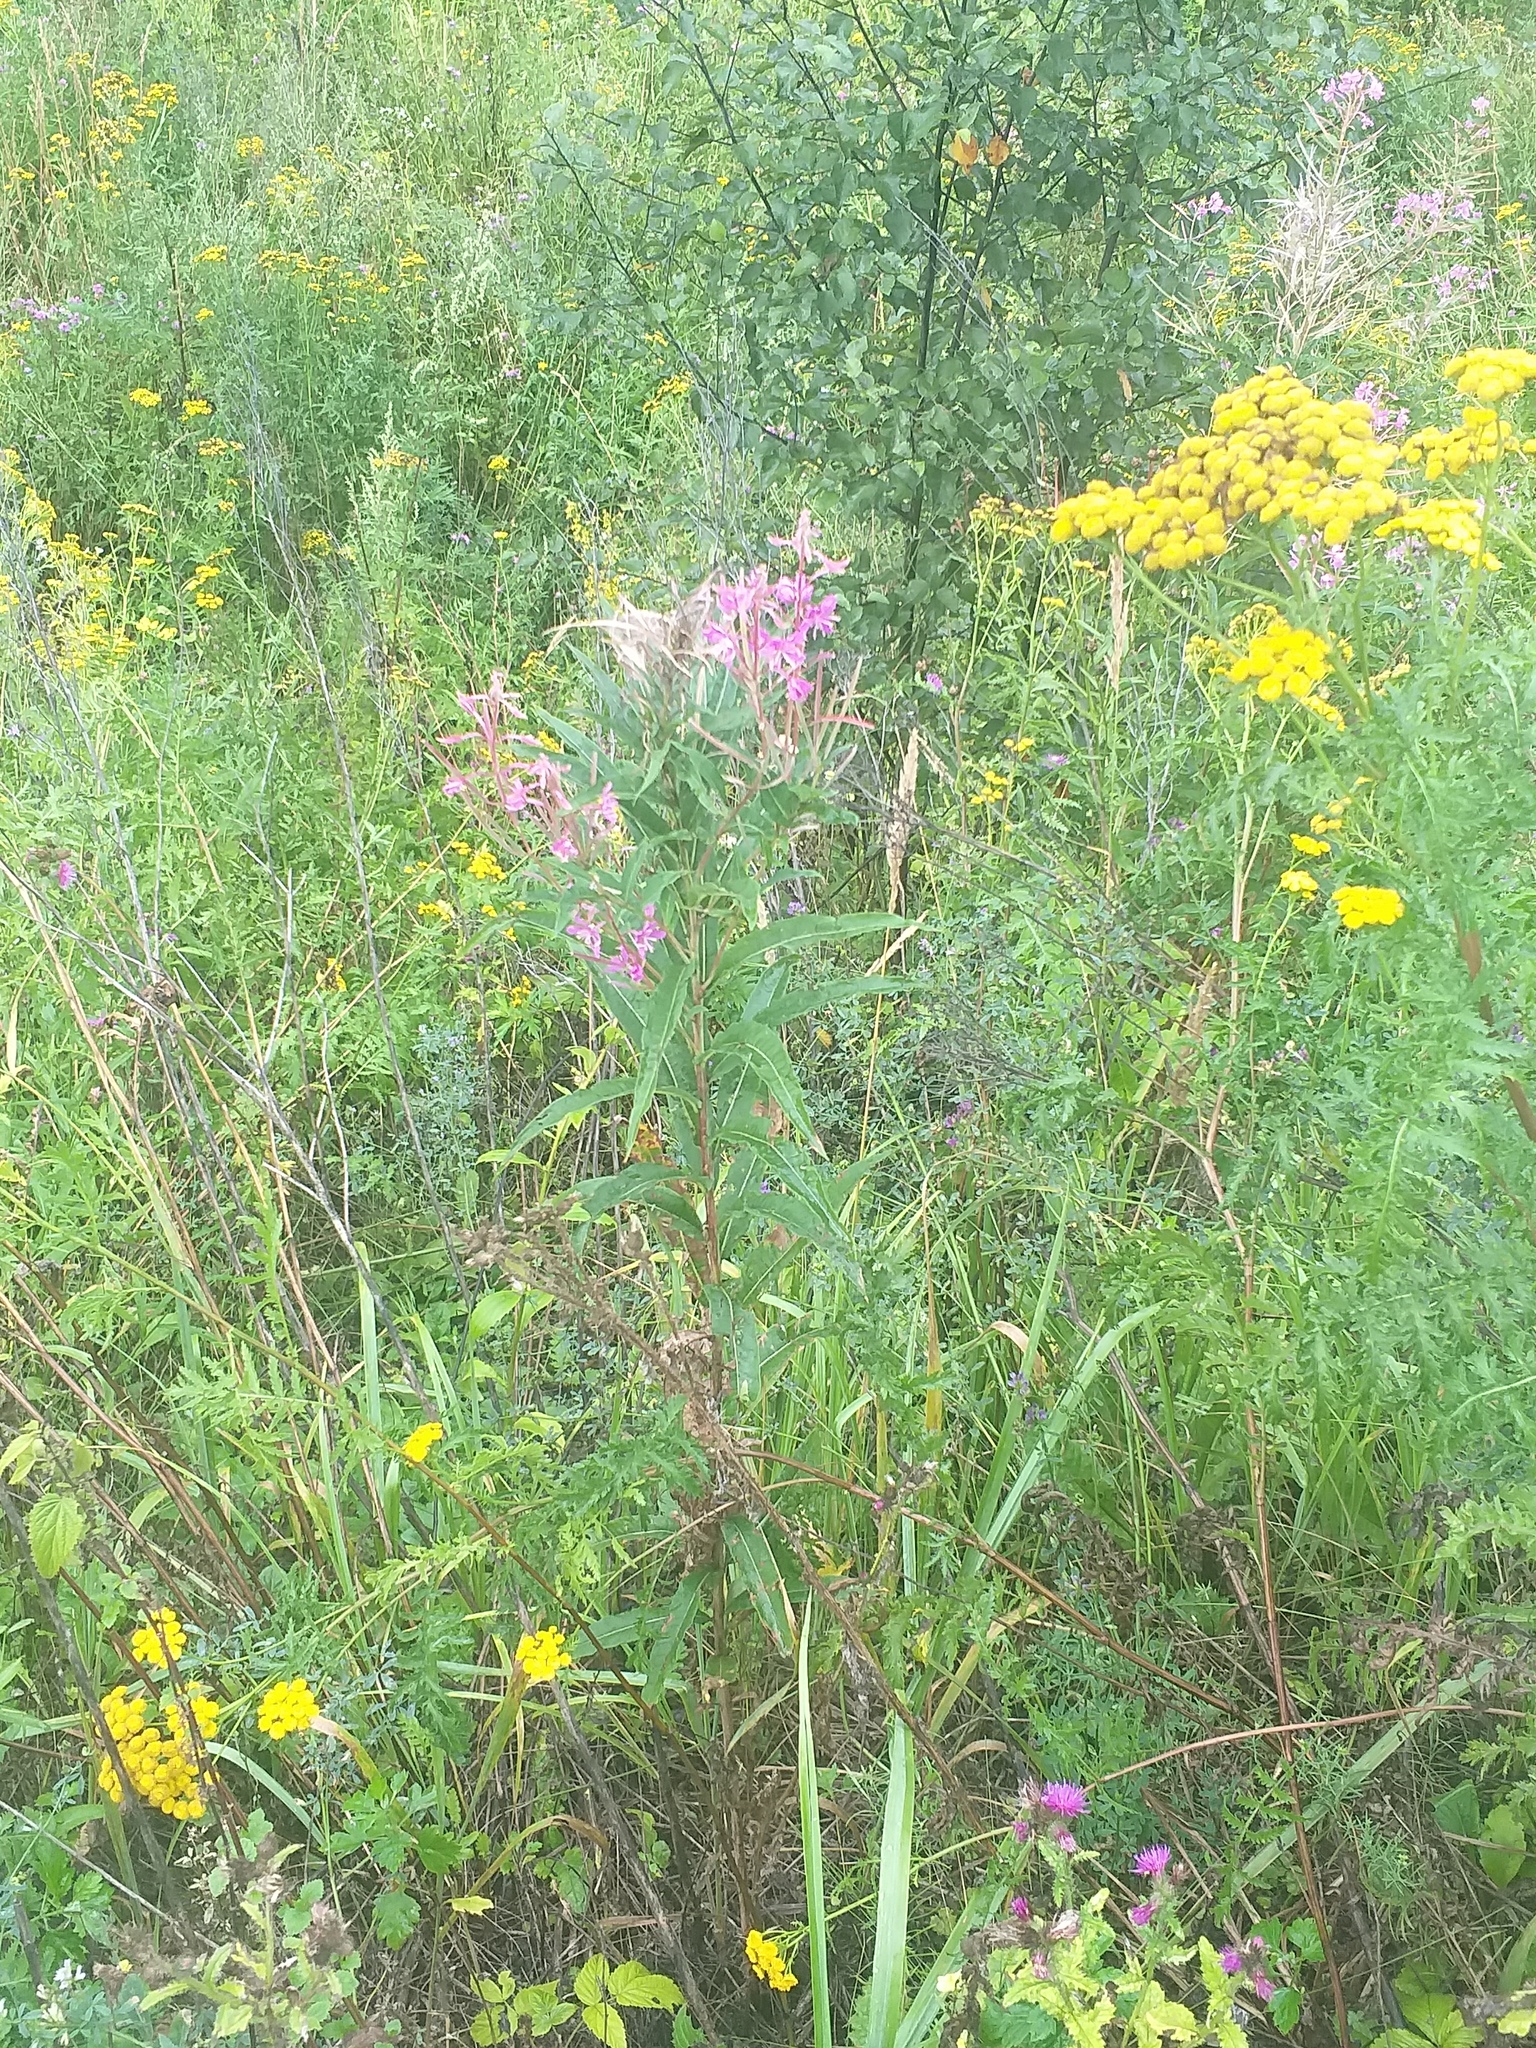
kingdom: Plantae
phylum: Tracheophyta
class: Magnoliopsida
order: Myrtales
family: Onagraceae
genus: Chamaenerion
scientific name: Chamaenerion angustifolium
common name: Fireweed
